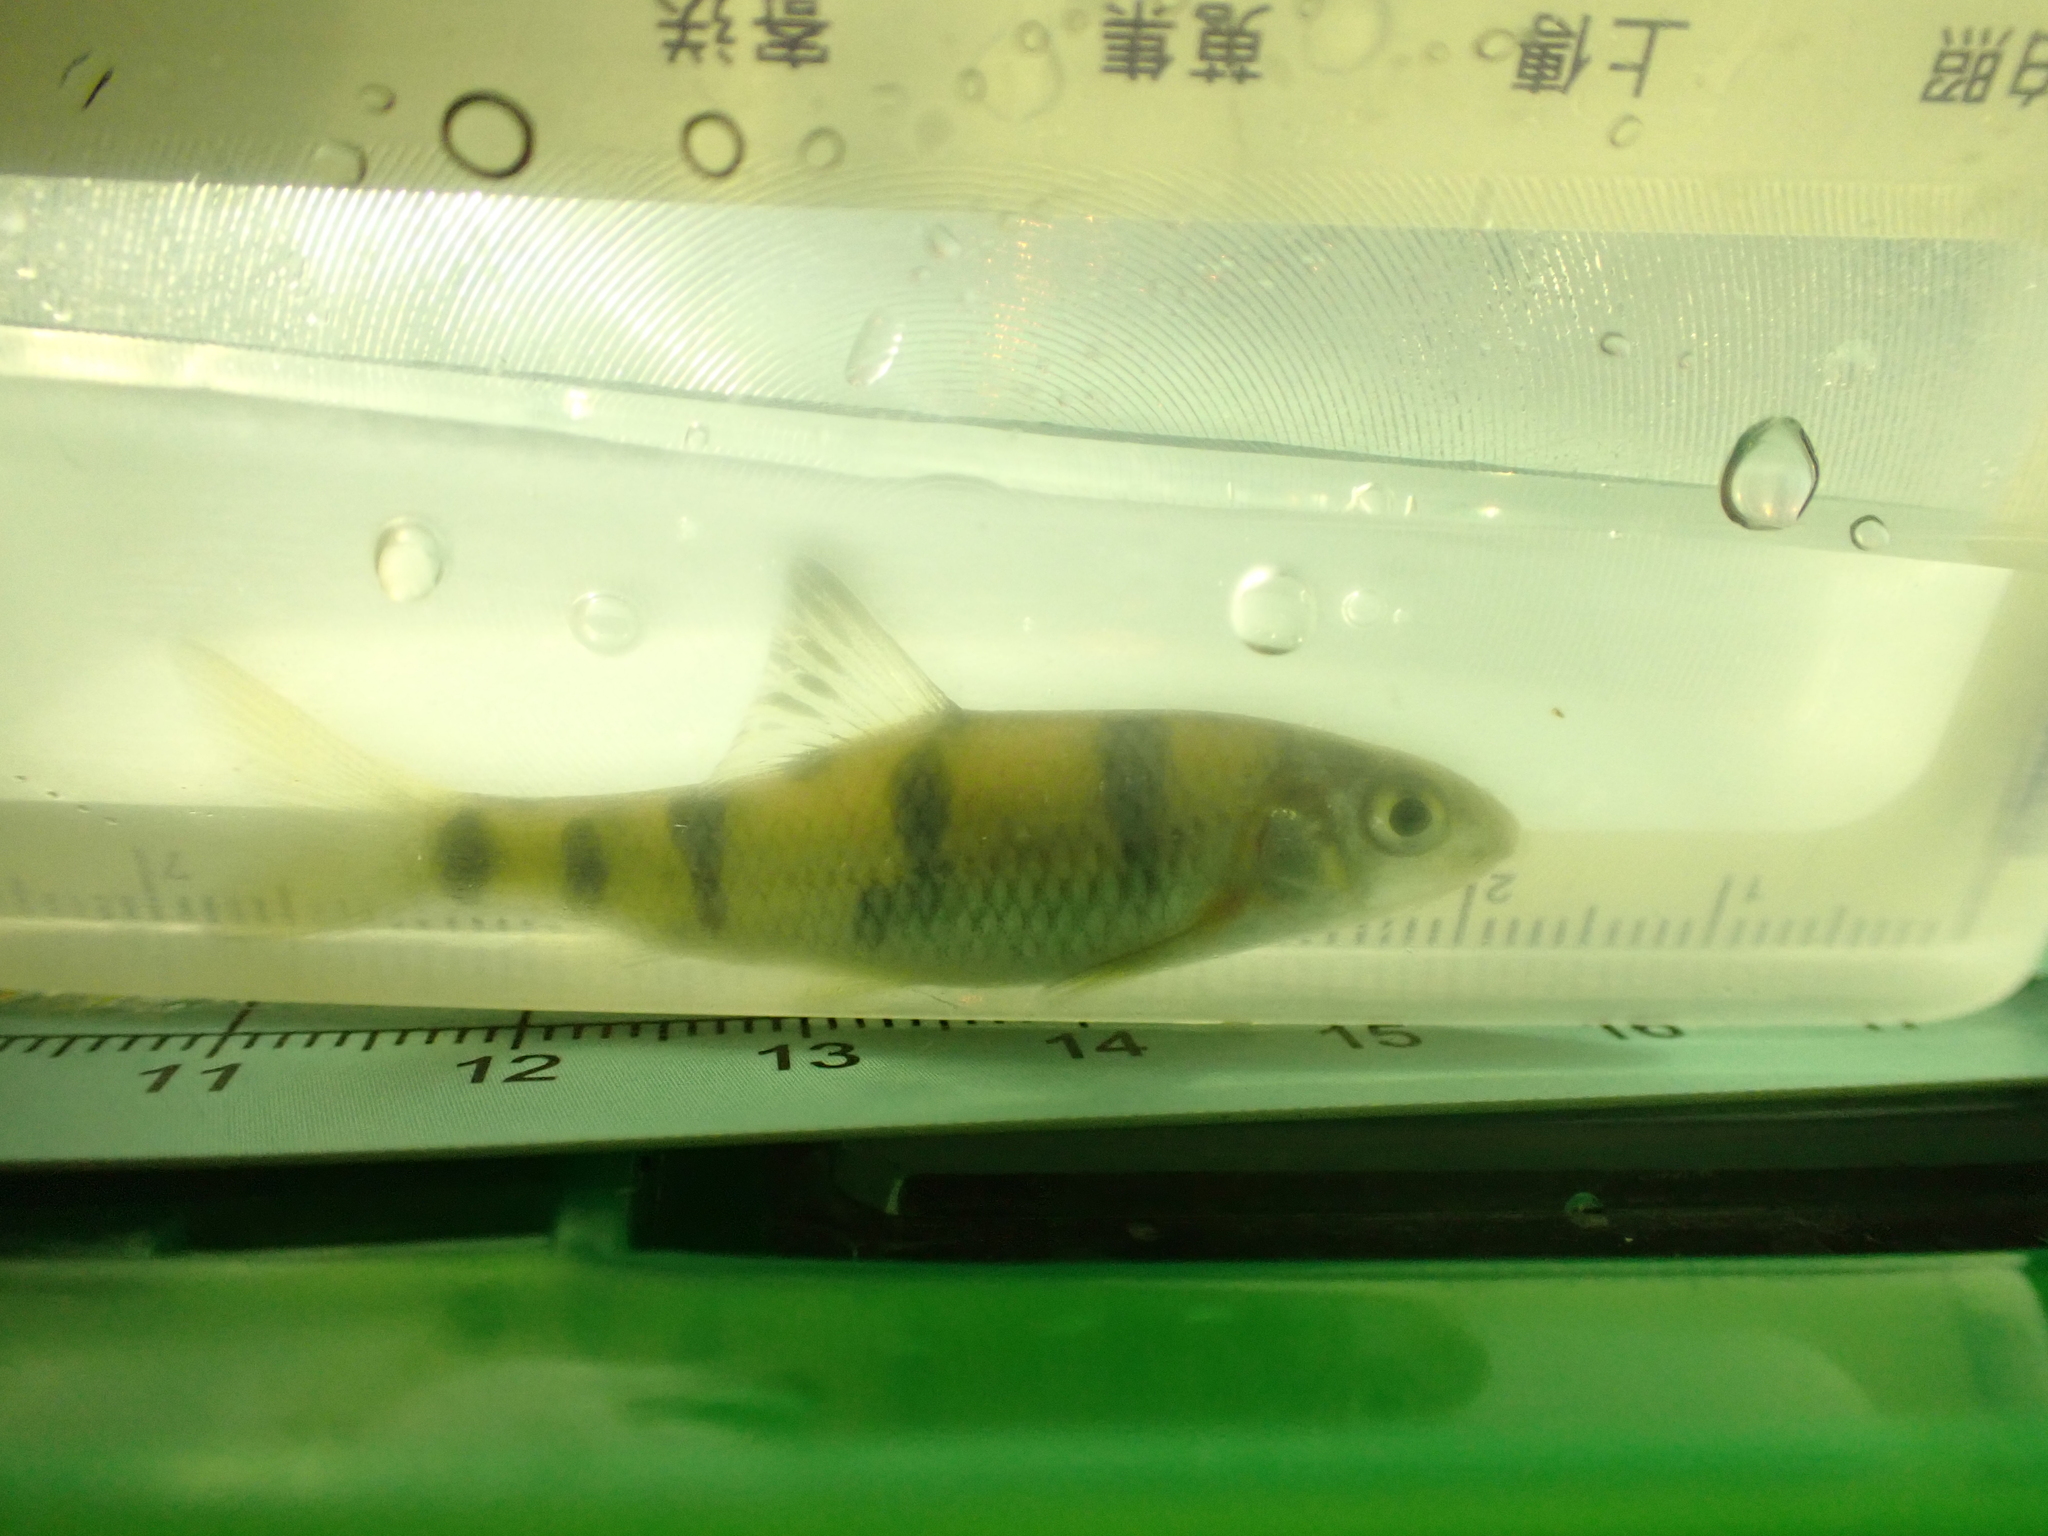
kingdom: Animalia
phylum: Chordata
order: Cypriniformes
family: Cyprinidae
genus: Acrossocheilus
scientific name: Acrossocheilus paradoxus
